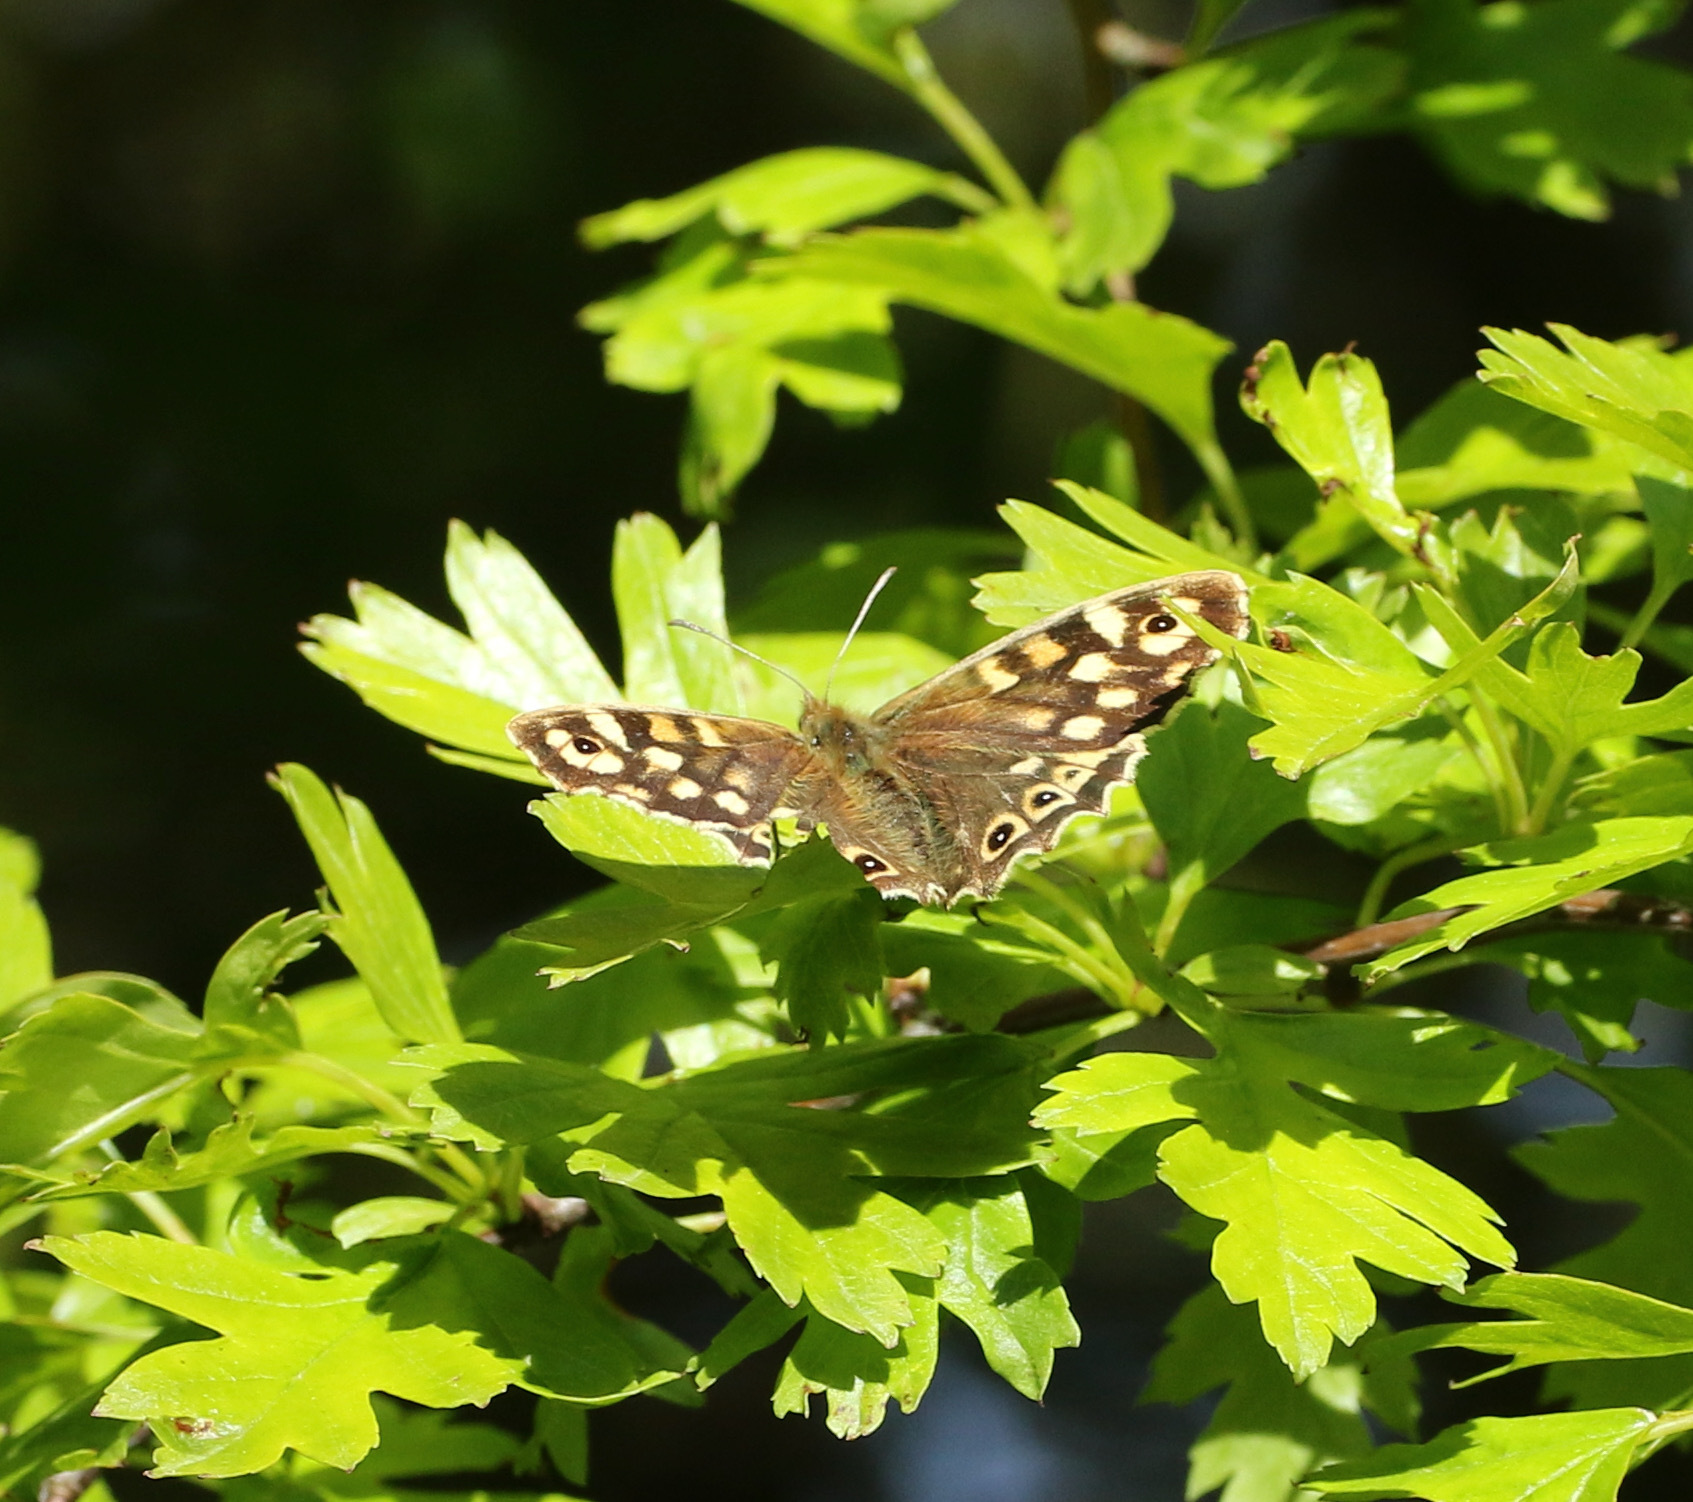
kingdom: Animalia
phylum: Arthropoda
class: Insecta
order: Lepidoptera
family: Nymphalidae
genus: Pararge
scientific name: Pararge aegeria
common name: Speckled wood
